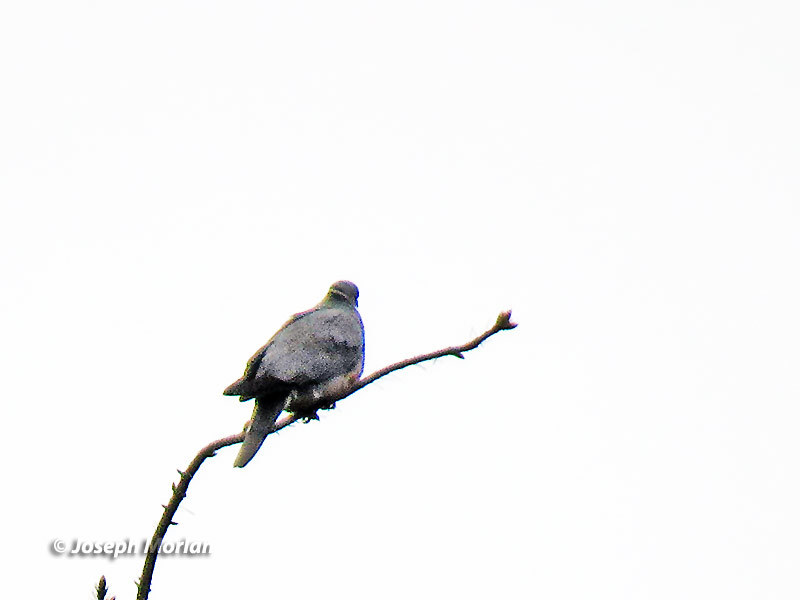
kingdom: Animalia
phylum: Chordata
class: Aves
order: Columbiformes
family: Columbidae
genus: Patagioenas
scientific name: Patagioenas fasciata
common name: Band-tailed pigeon
